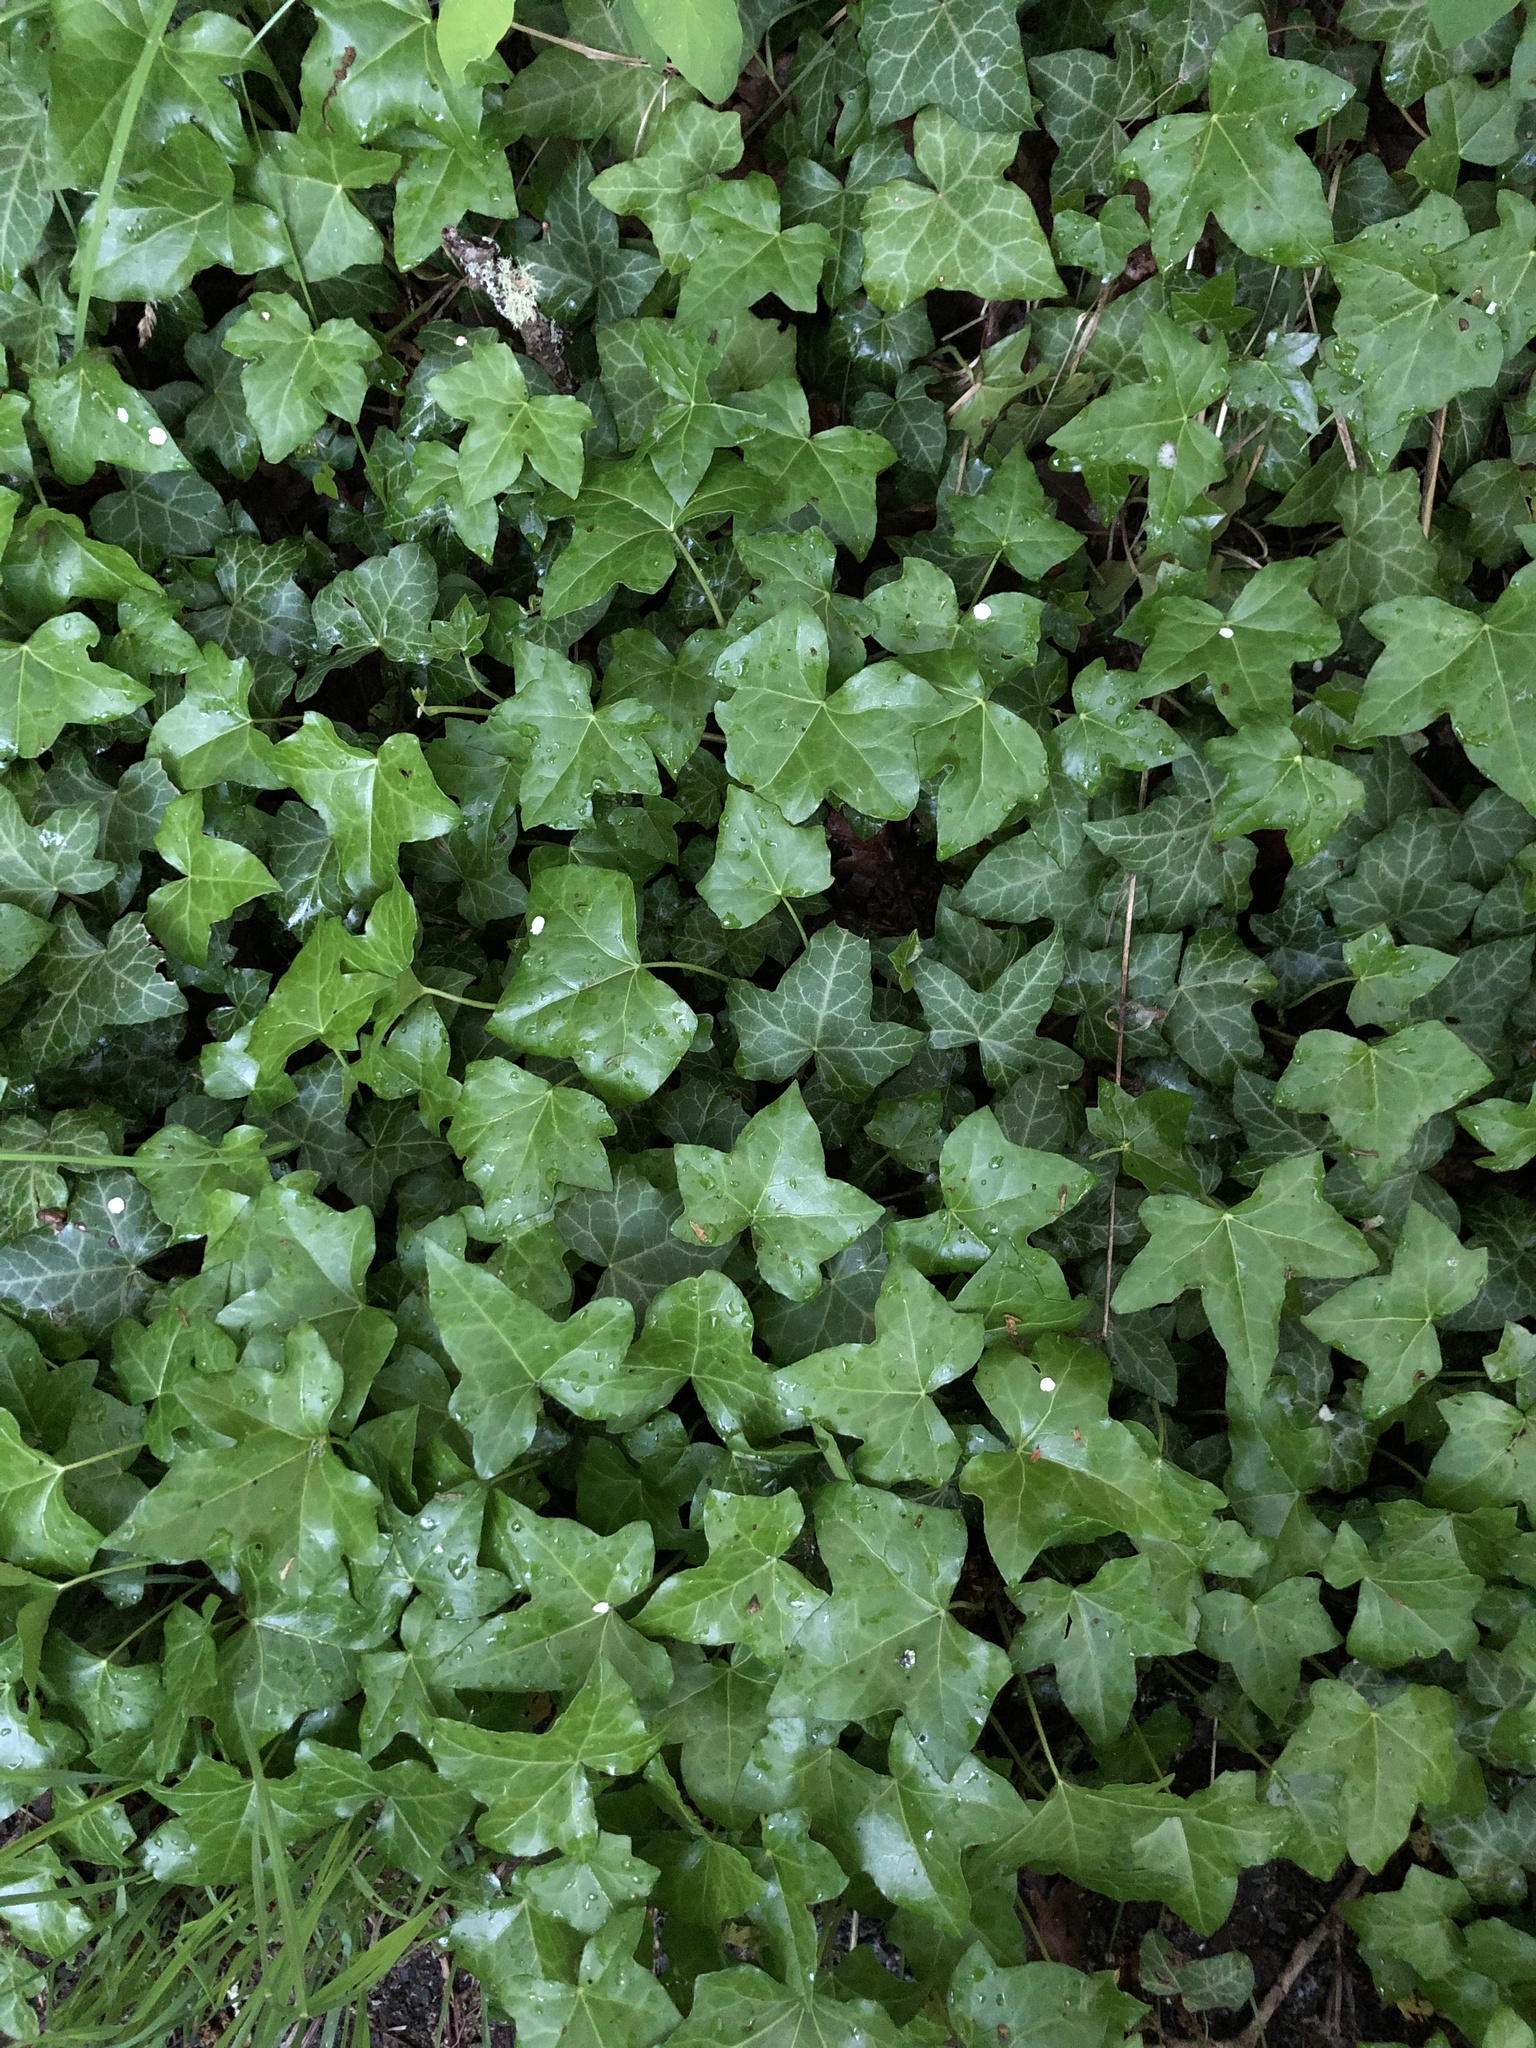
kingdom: Plantae
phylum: Tracheophyta
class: Magnoliopsida
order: Apiales
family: Araliaceae
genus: Hedera
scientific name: Hedera helix
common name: Ivy
